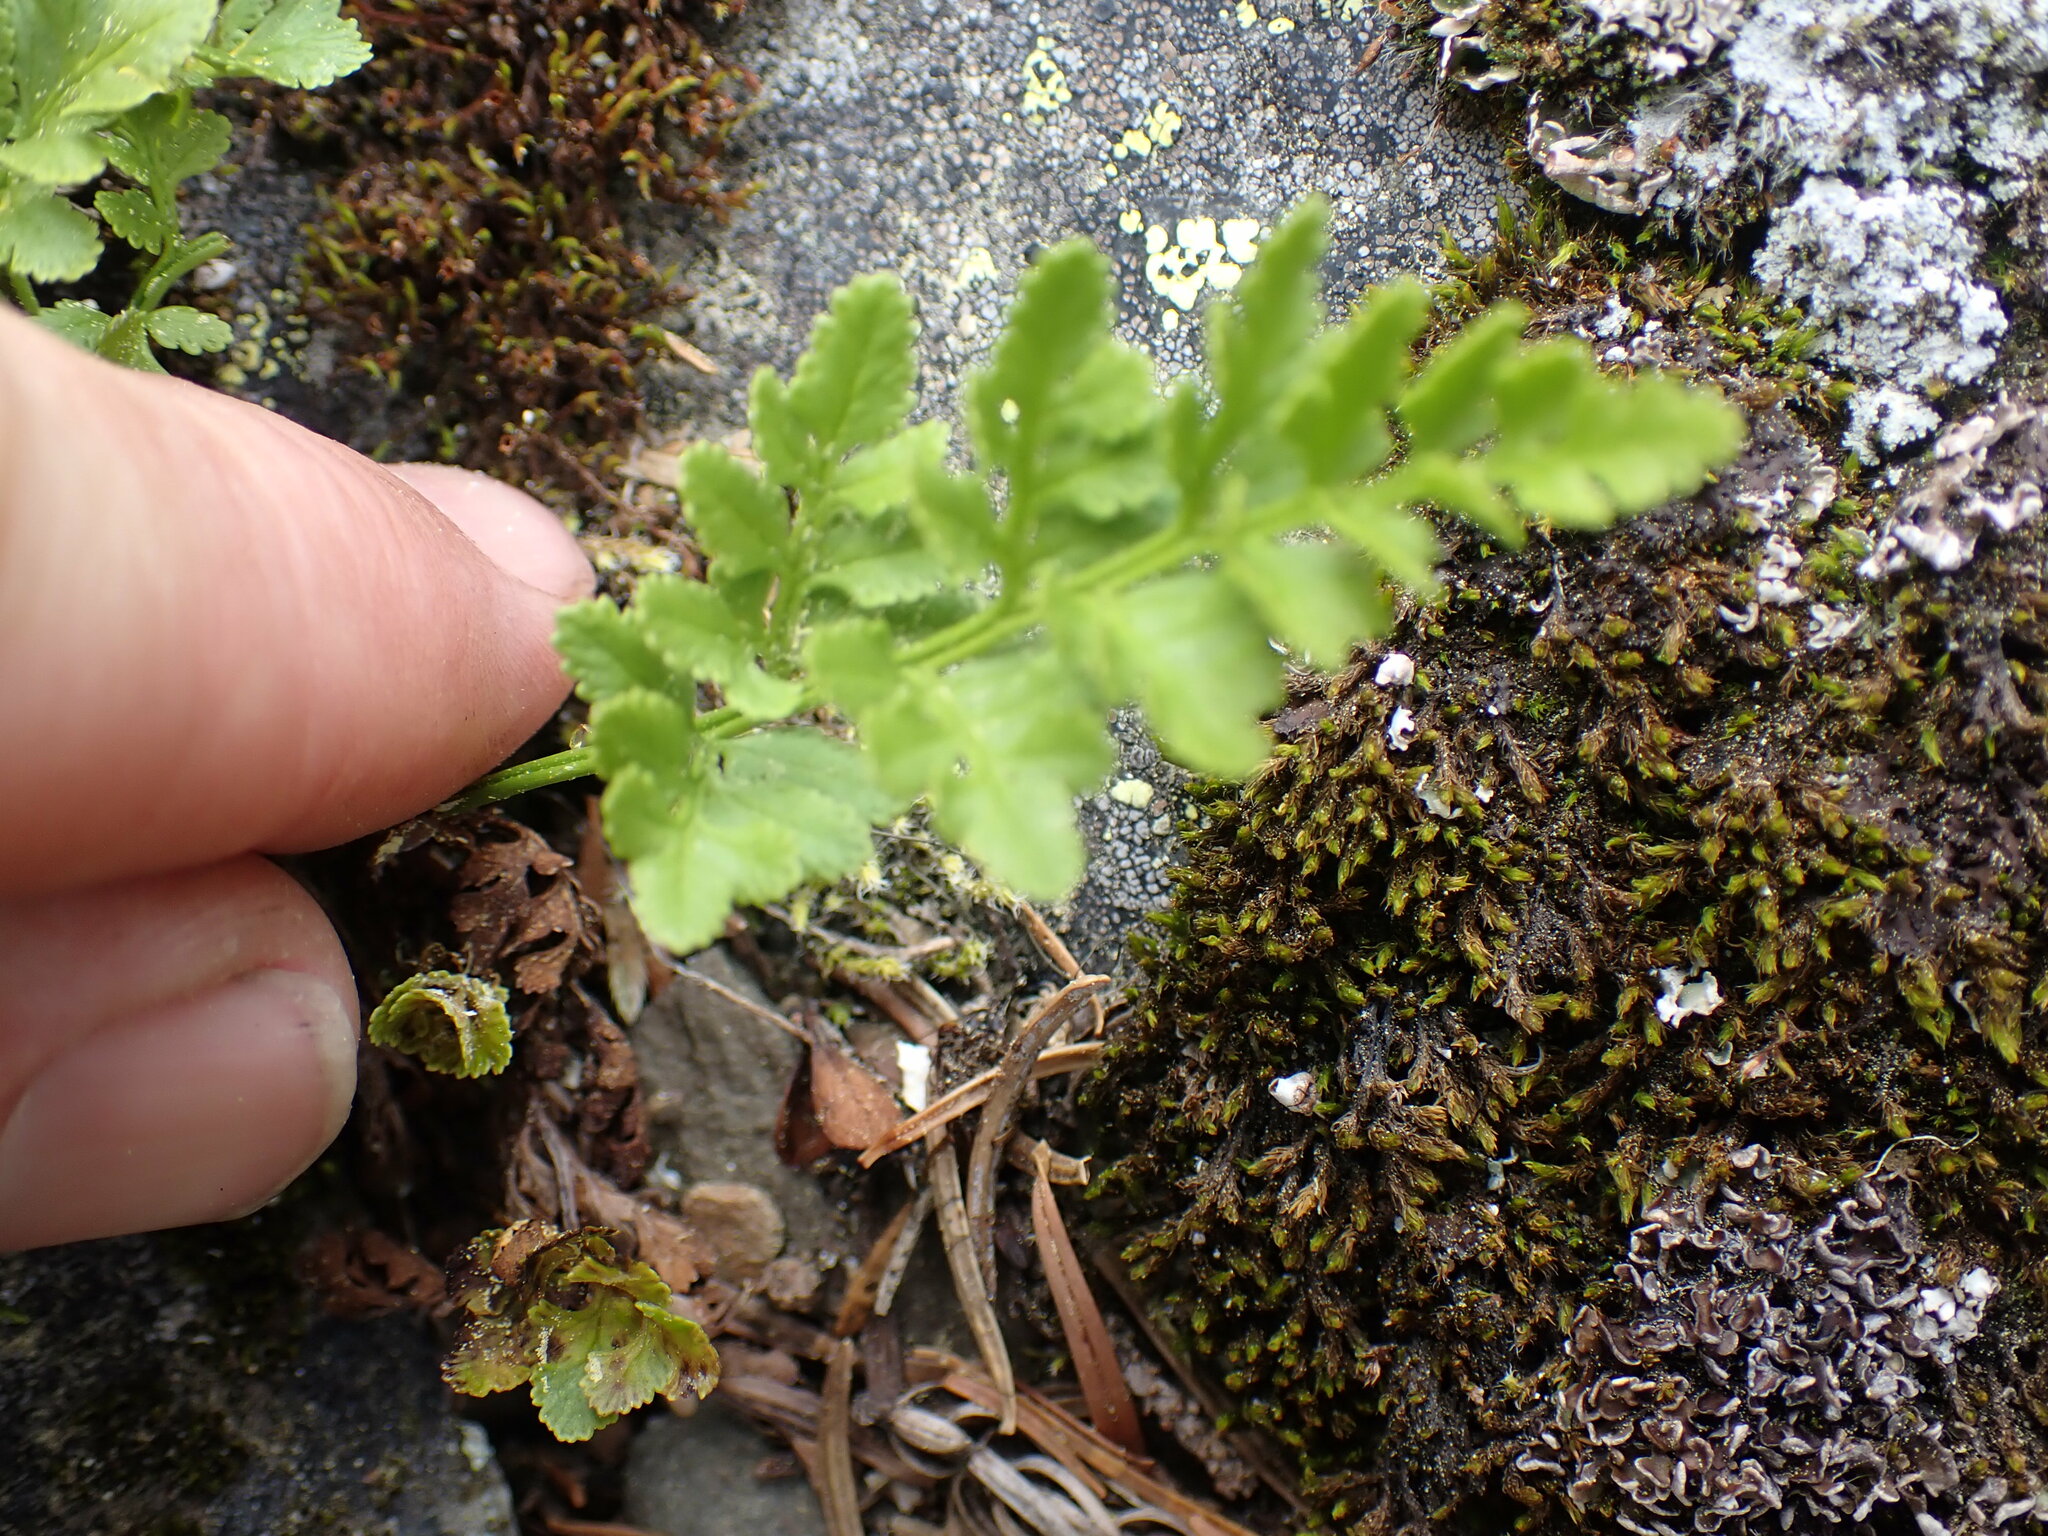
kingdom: Plantae
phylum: Tracheophyta
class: Polypodiopsida
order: Polypodiales
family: Pteridaceae
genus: Cryptogramma
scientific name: Cryptogramma acrostichoides
